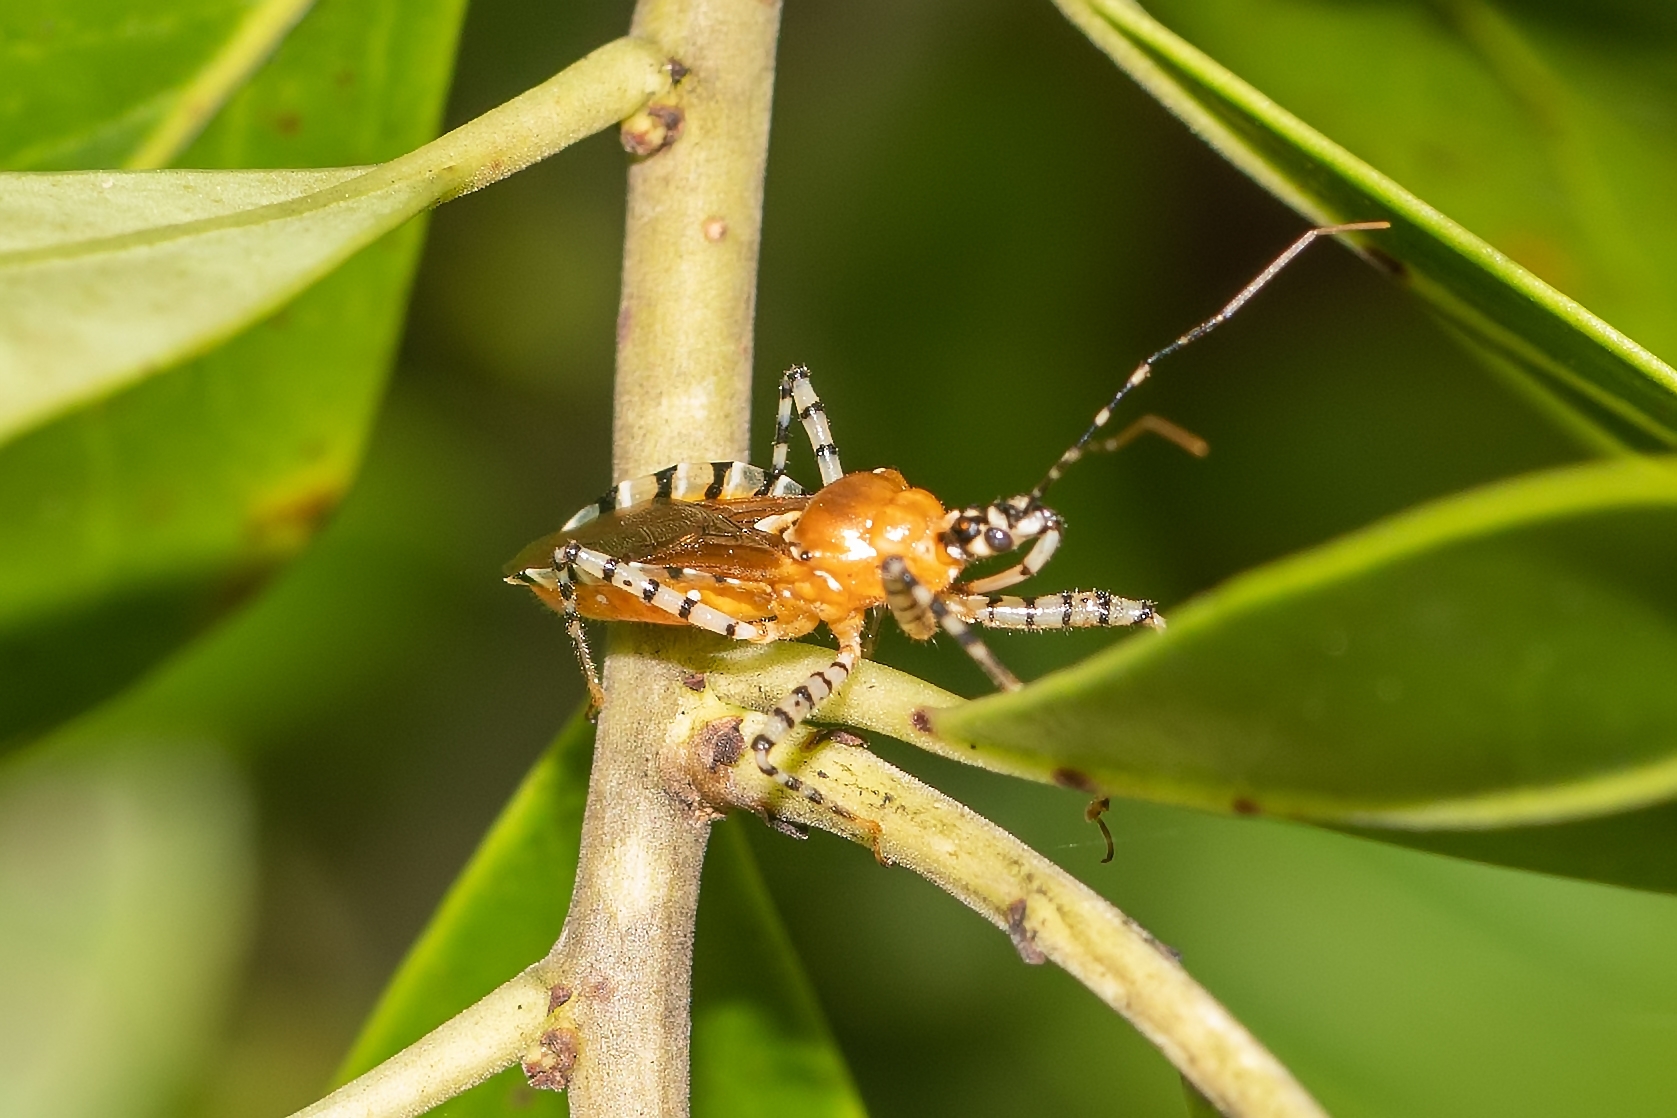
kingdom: Animalia
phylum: Arthropoda
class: Insecta
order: Hemiptera
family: Reduviidae
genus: Pselliopus
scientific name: Pselliopus cinctus
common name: Ringed assassin bug
